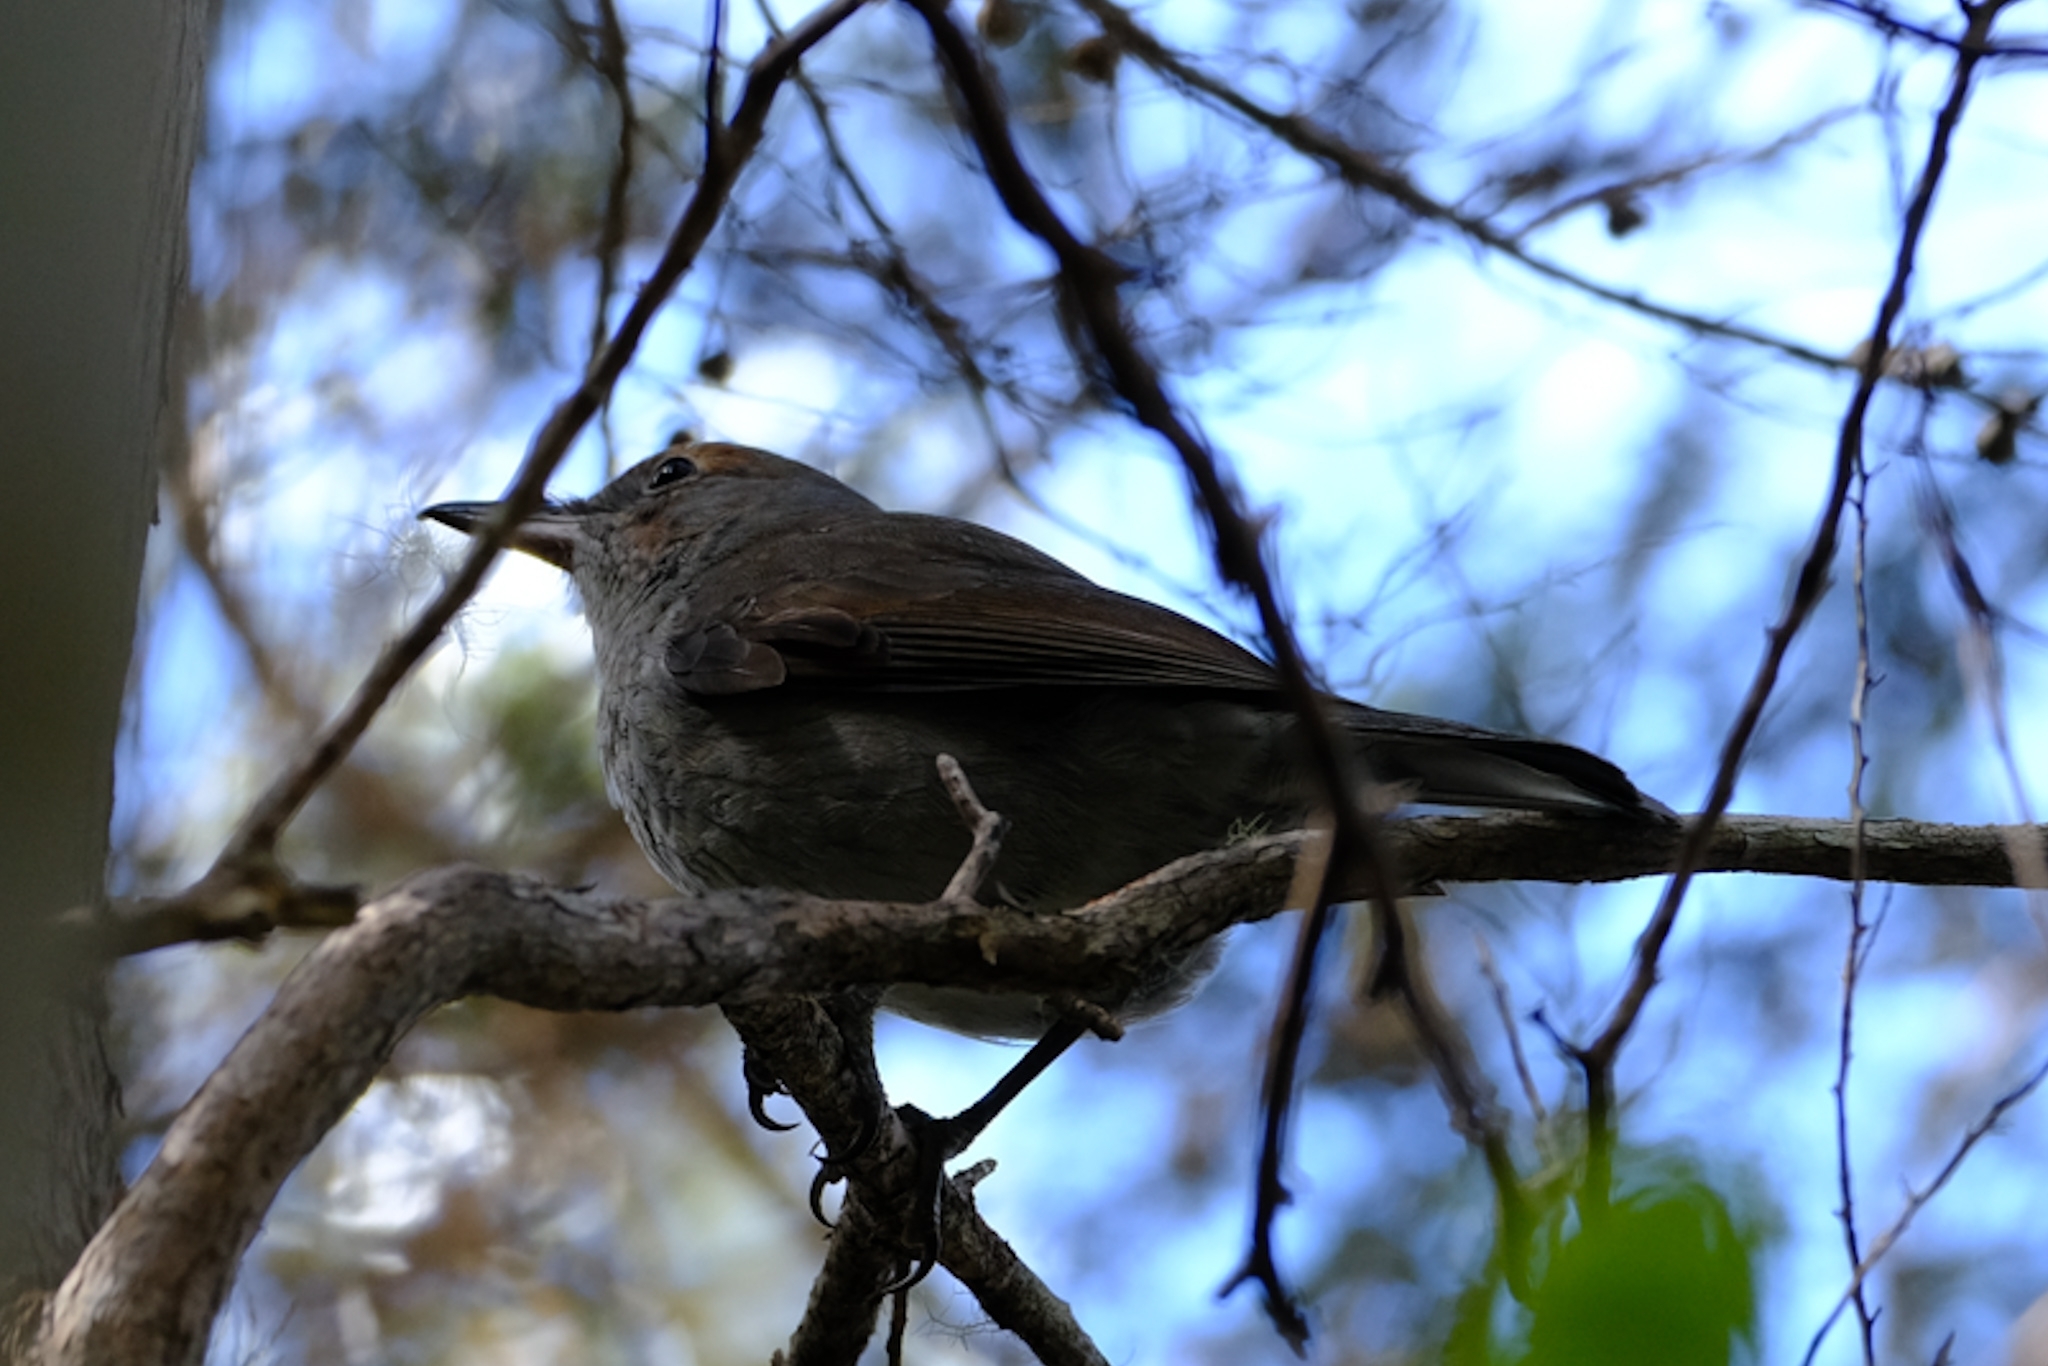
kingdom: Animalia
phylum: Chordata
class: Aves
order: Passeriformes
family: Pachycephalidae
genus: Colluricincla
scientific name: Colluricincla harmonica
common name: Grey shrikethrush
